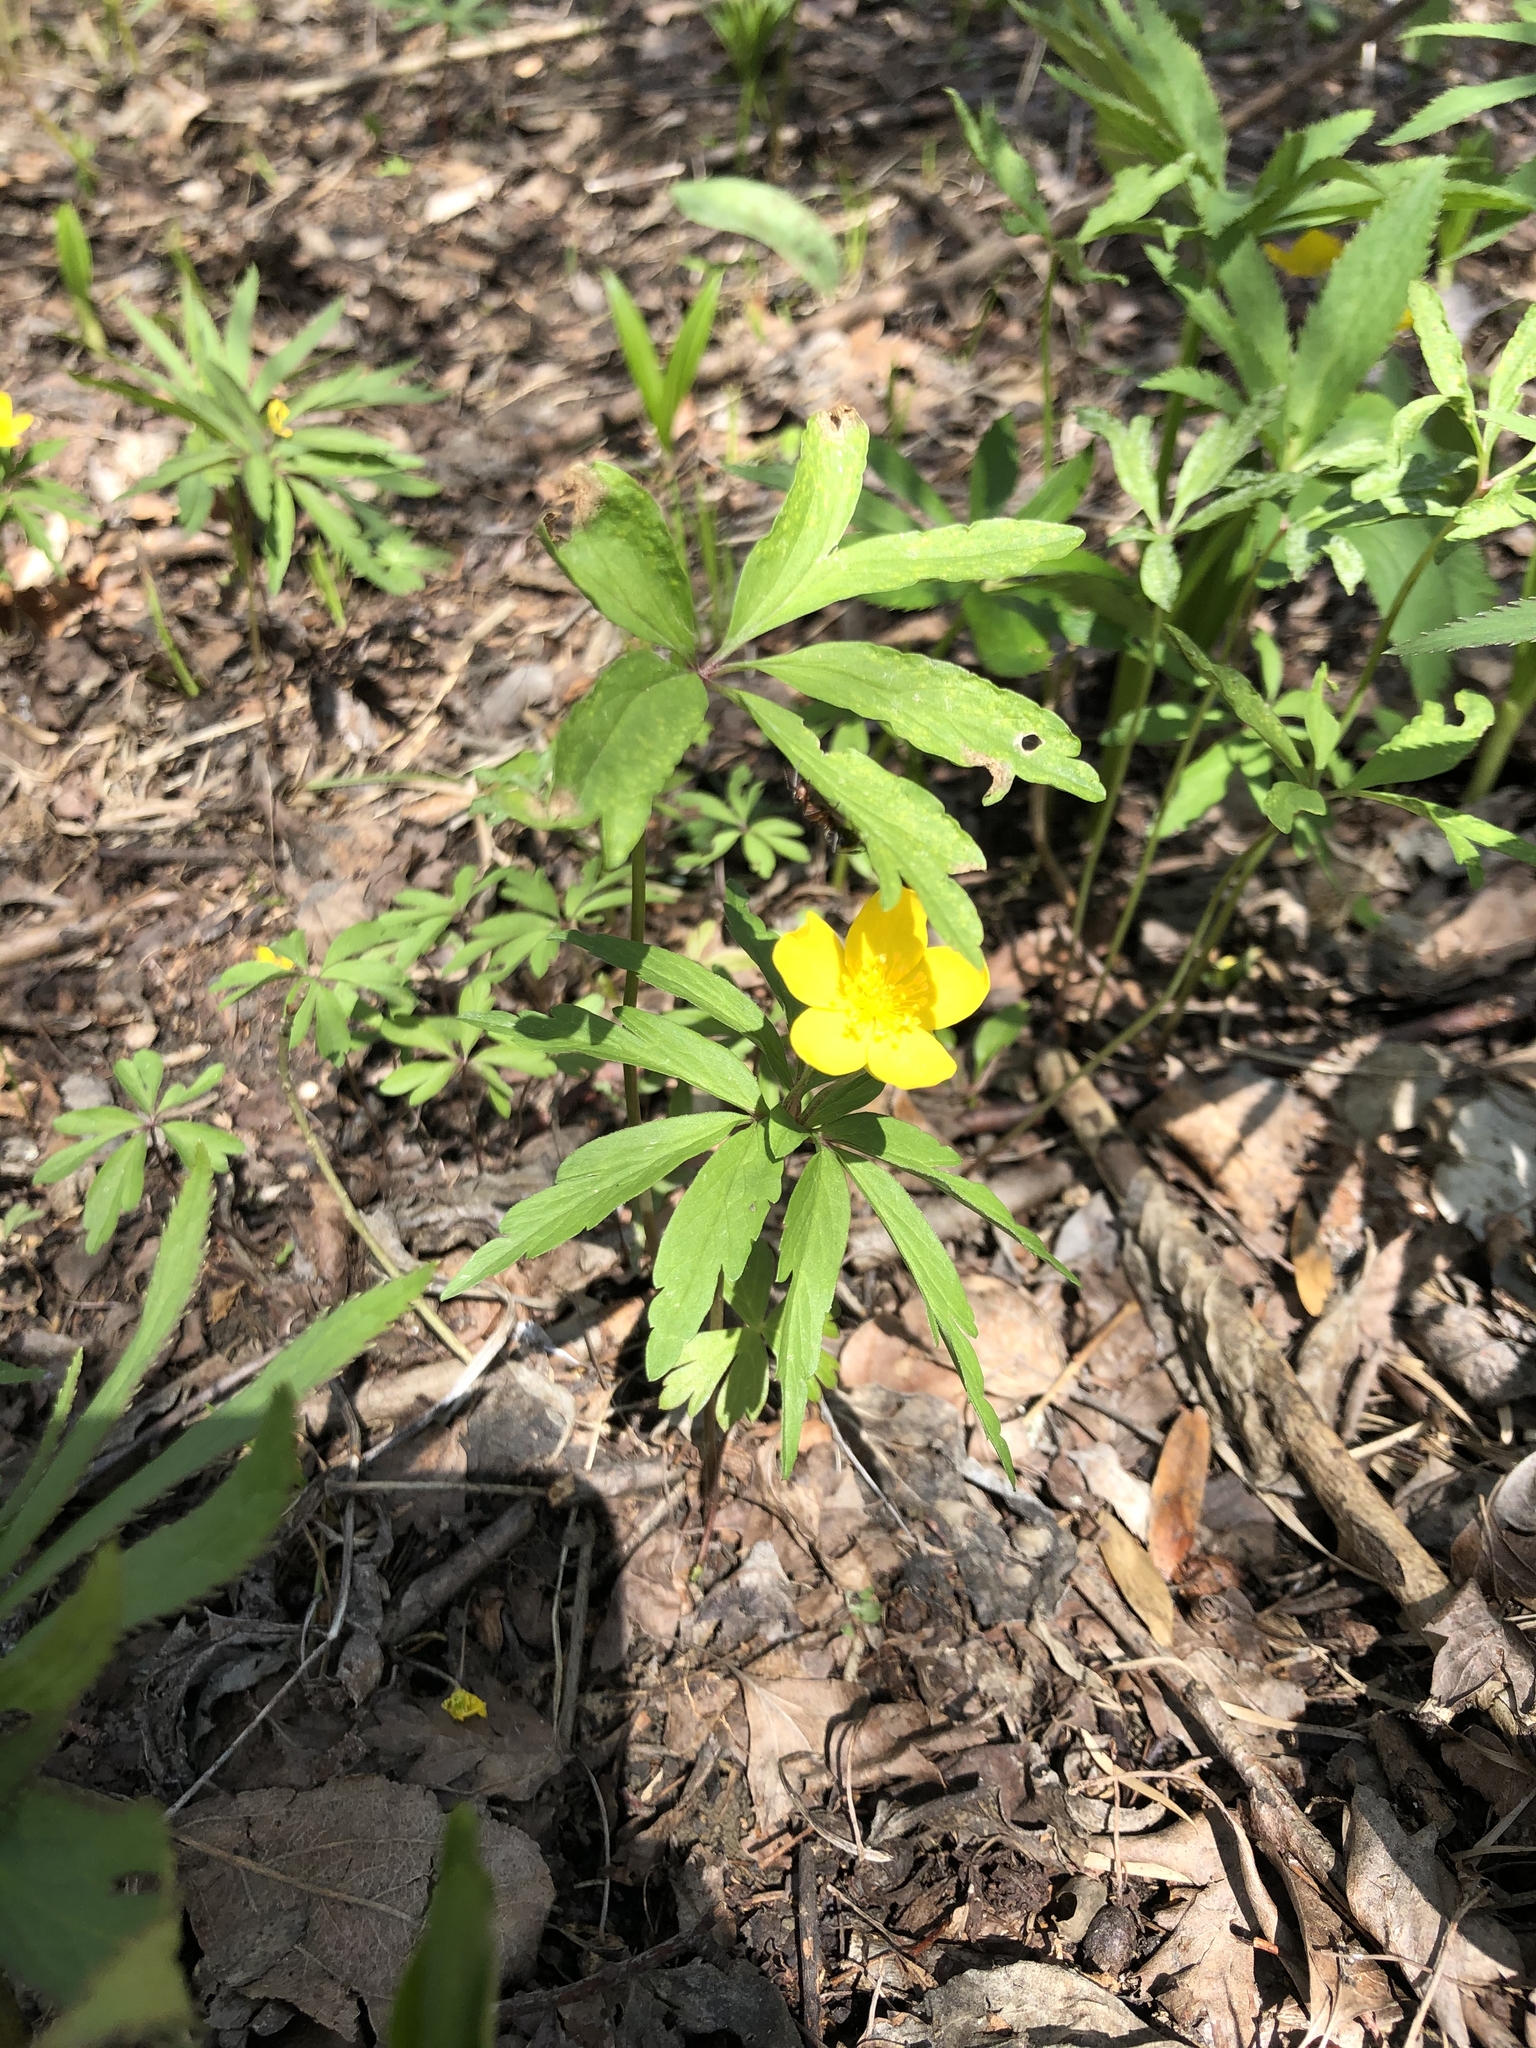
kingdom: Plantae
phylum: Tracheophyta
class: Magnoliopsida
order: Ranunculales
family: Ranunculaceae
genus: Anemone
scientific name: Anemone ranunculoides
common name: Yellow anemone
